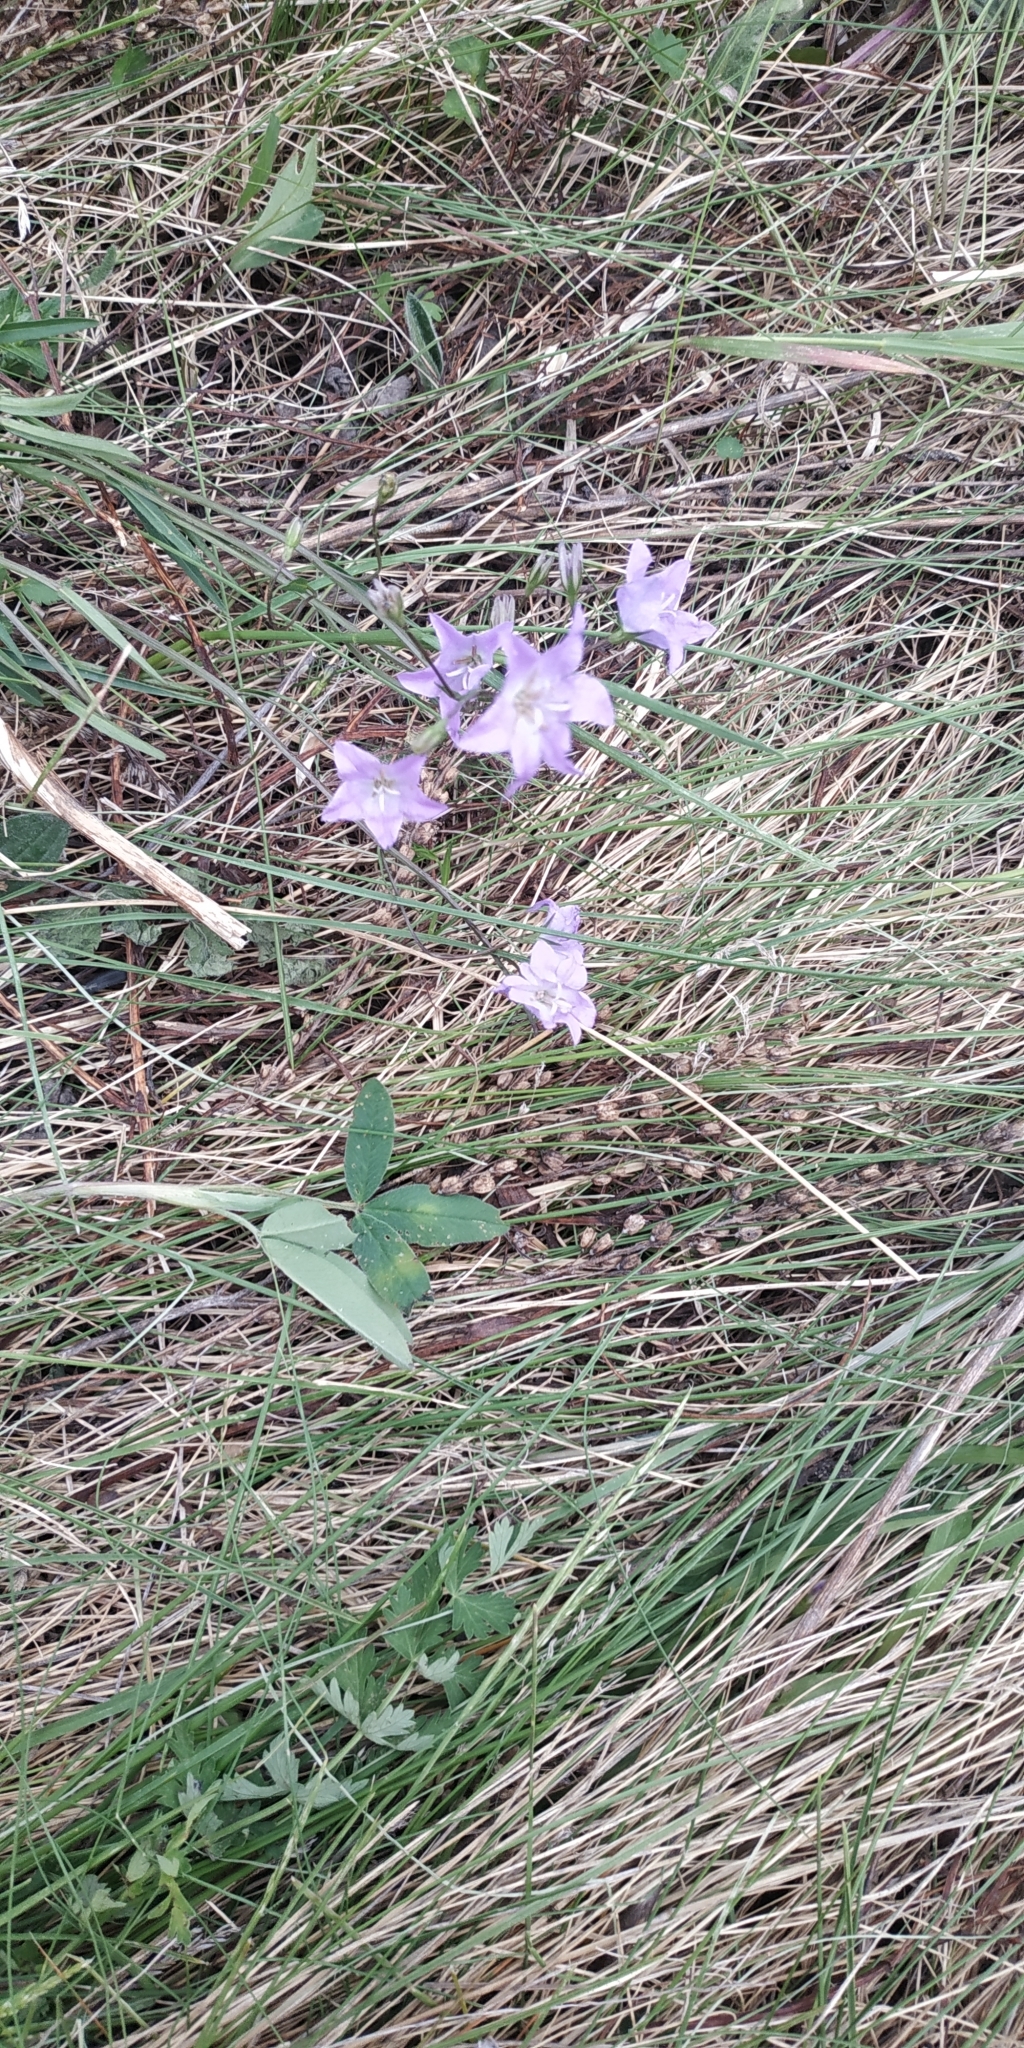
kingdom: Plantae
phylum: Tracheophyta
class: Magnoliopsida
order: Asterales
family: Campanulaceae
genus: Campanula
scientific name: Campanula stevenii
